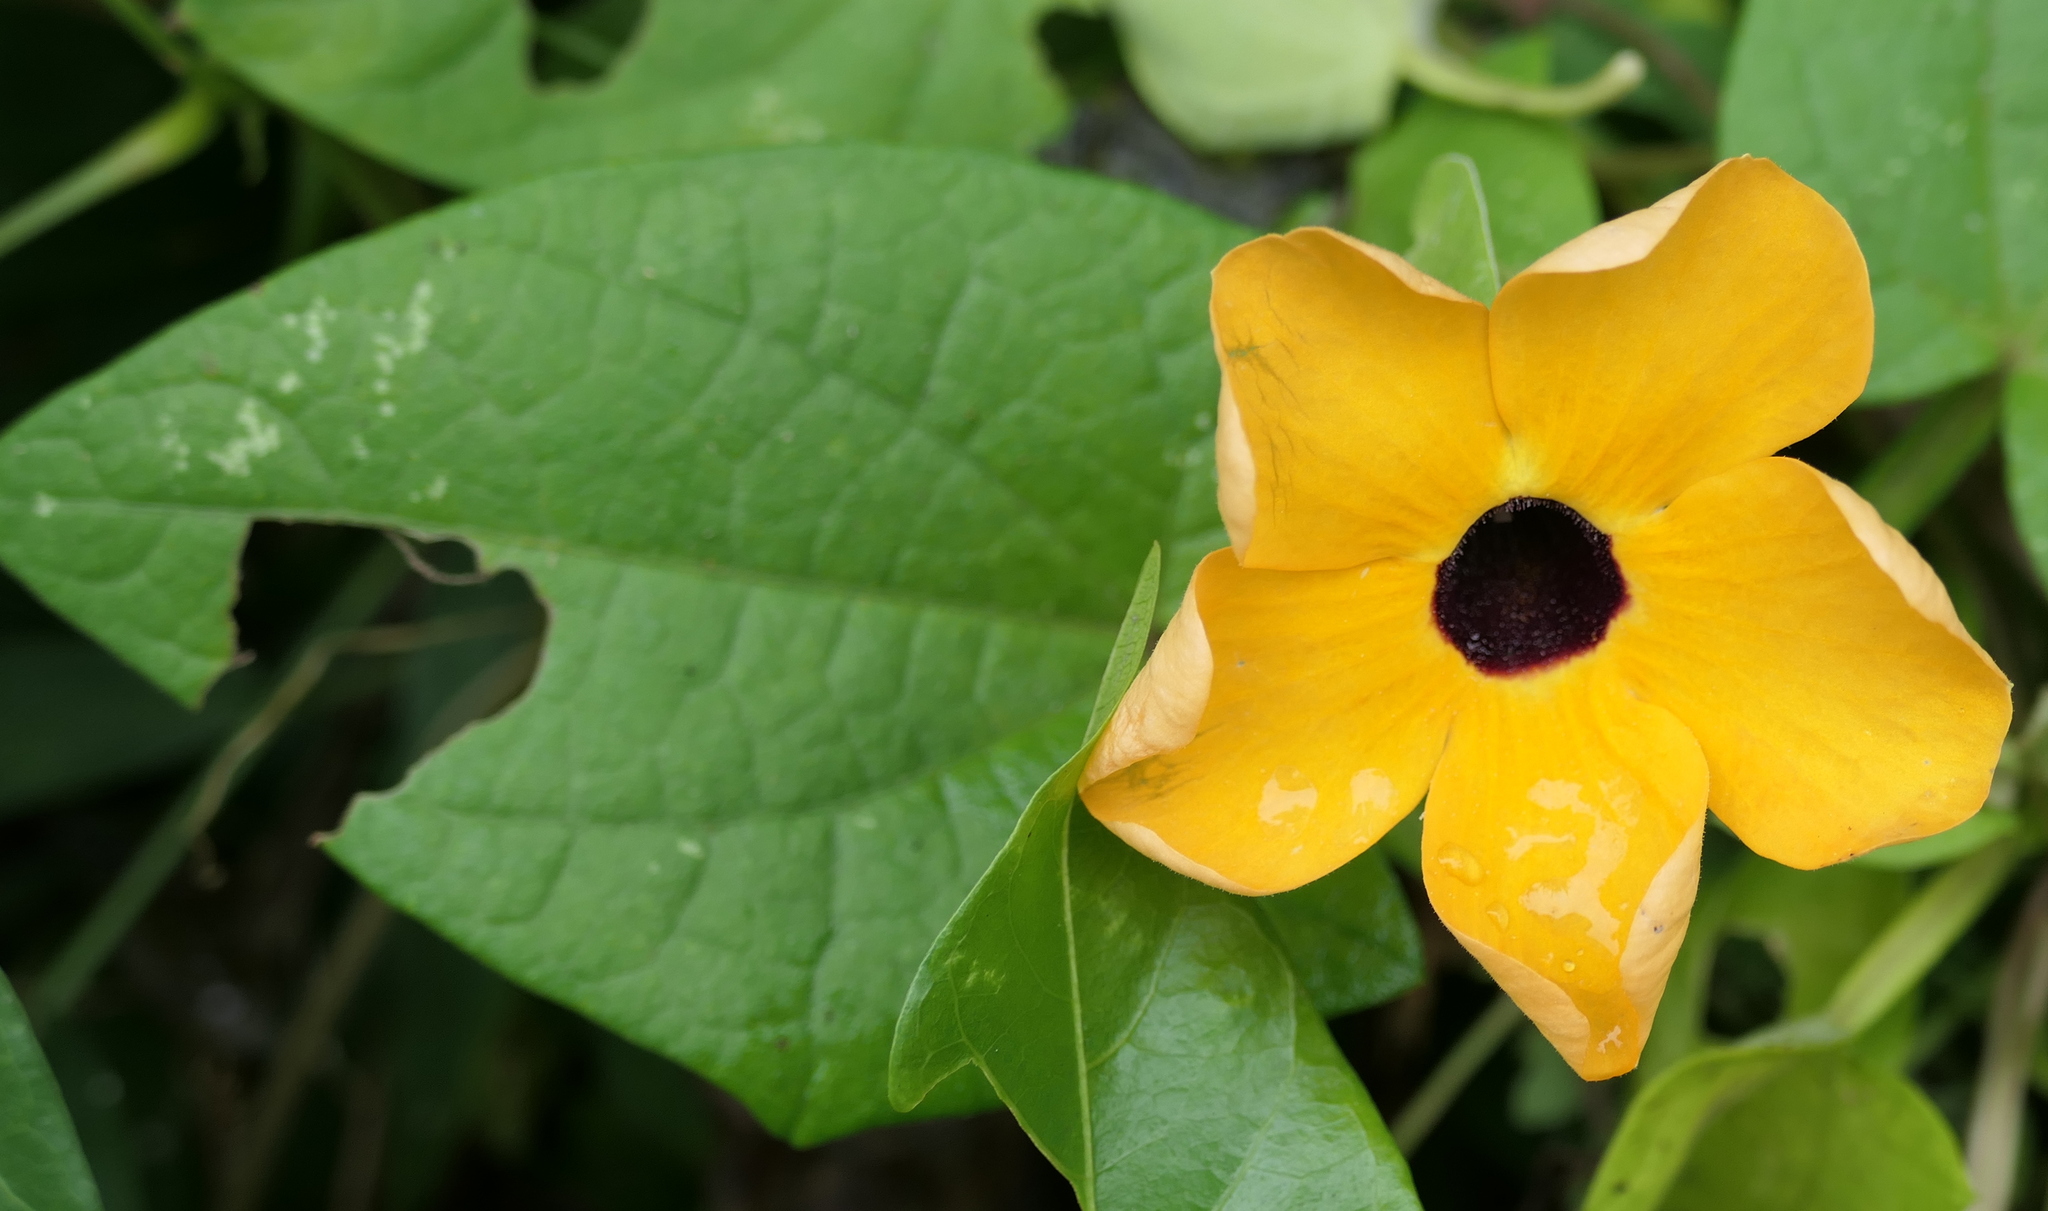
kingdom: Plantae
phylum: Tracheophyta
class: Magnoliopsida
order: Lamiales
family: Acanthaceae
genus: Thunbergia
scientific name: Thunbergia alata
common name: Blackeyed susan vine
